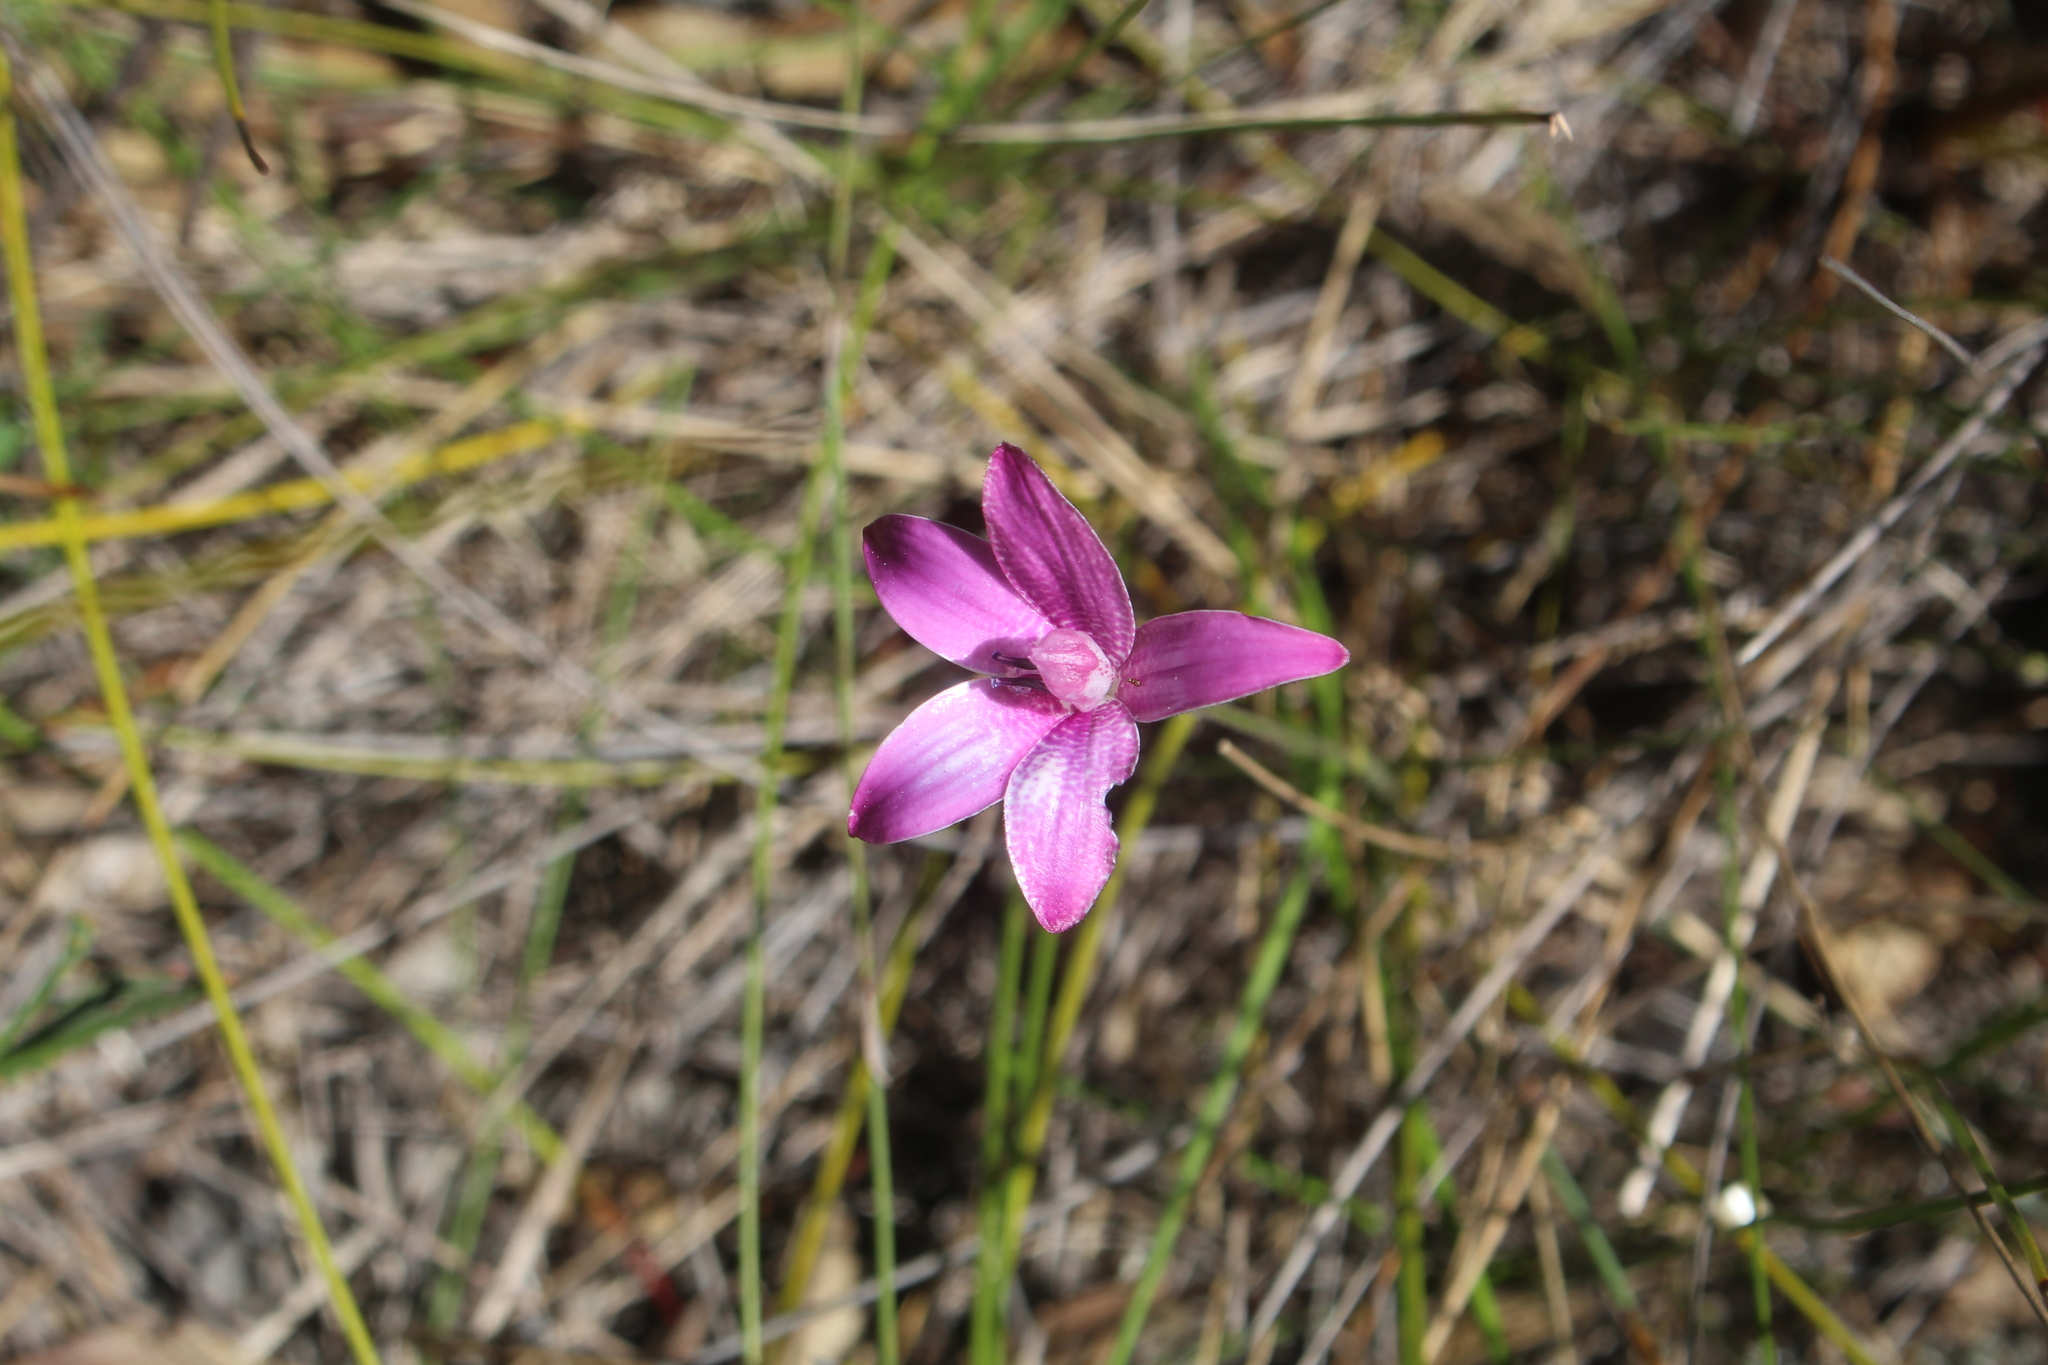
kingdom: Plantae
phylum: Tracheophyta
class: Liliopsida
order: Asparagales
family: Orchidaceae
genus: Caladenia
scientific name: Caladenia emarginata
